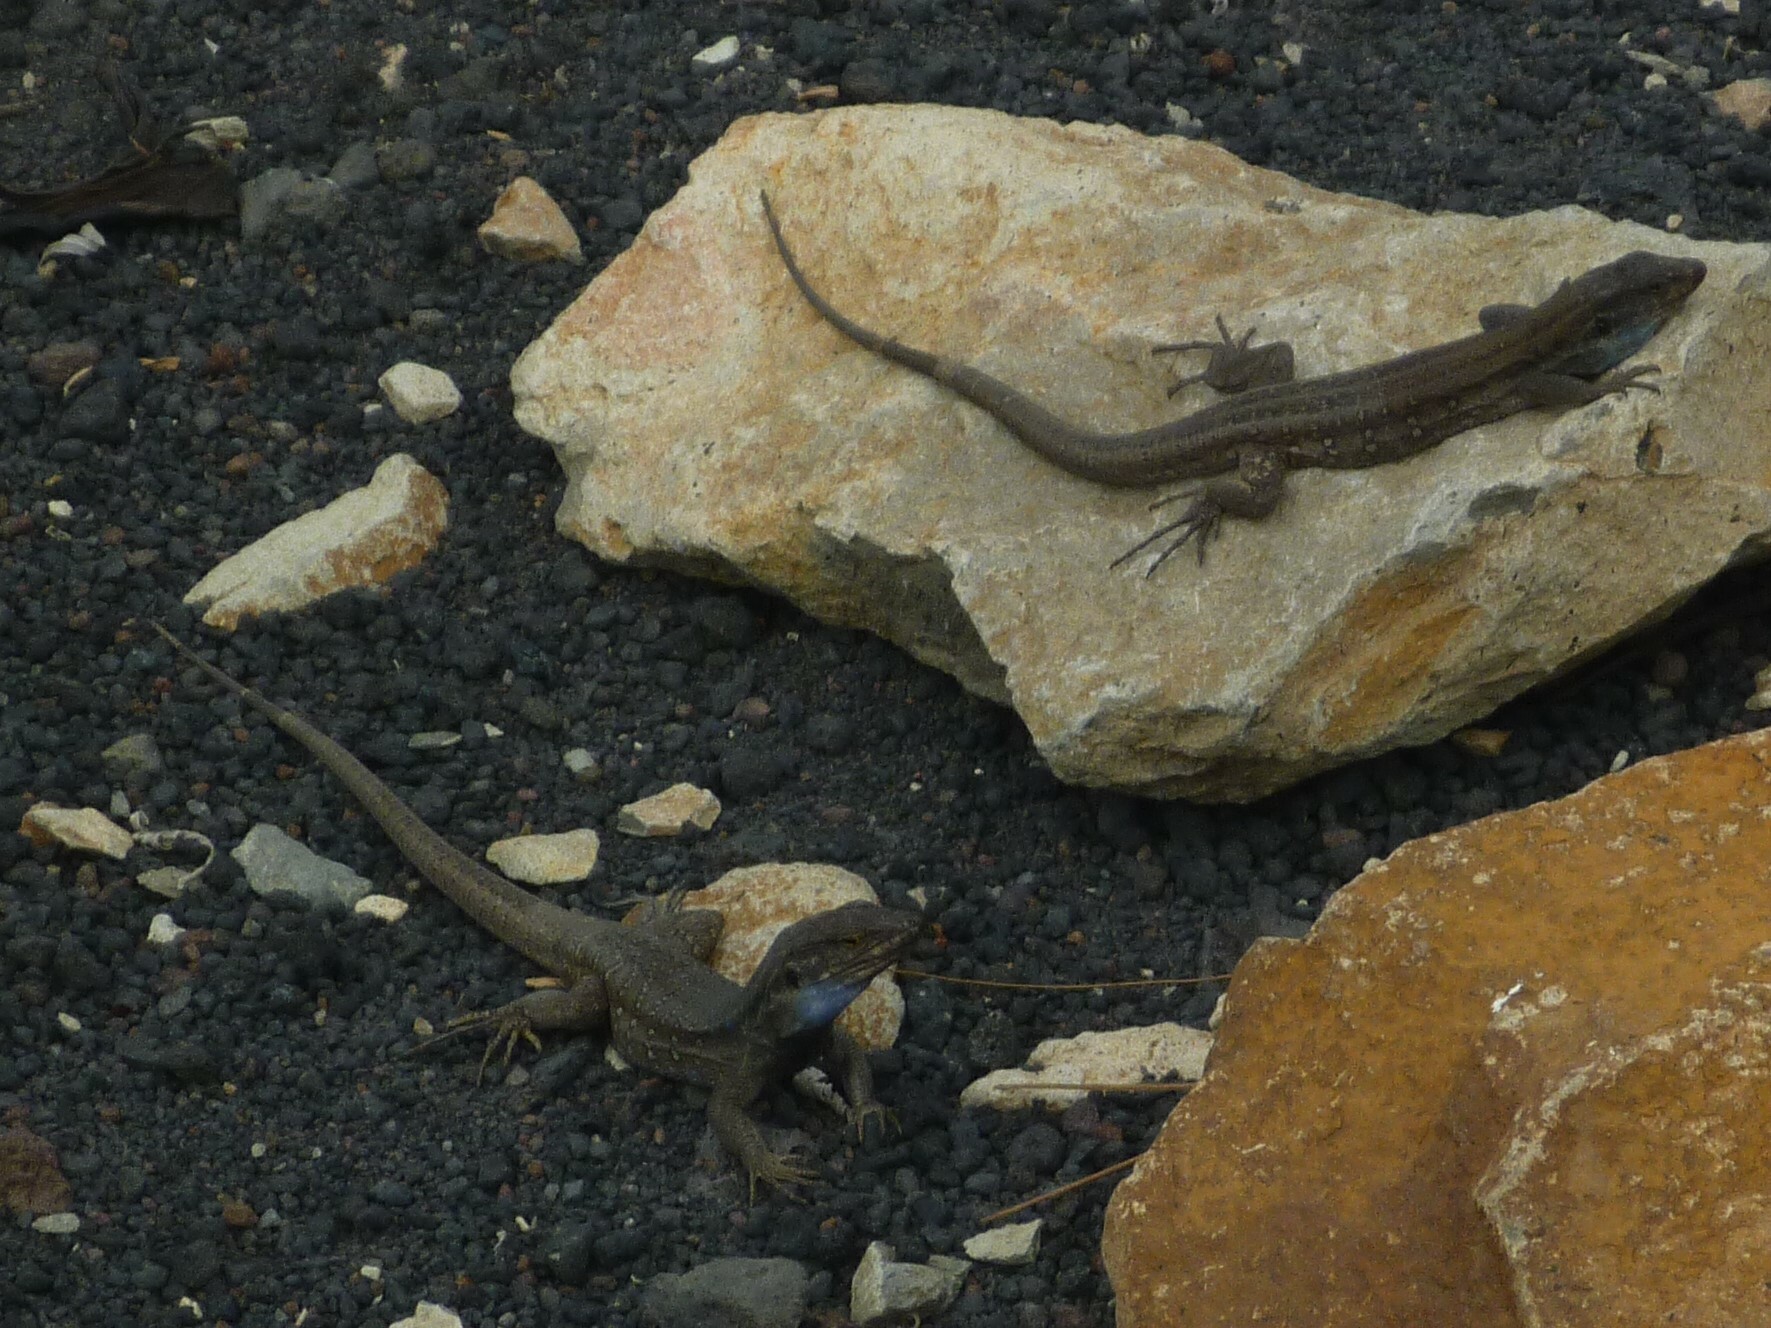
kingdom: Animalia
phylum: Chordata
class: Squamata
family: Lacertidae
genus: Gallotia
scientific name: Gallotia galloti
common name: Gallot's lizard
